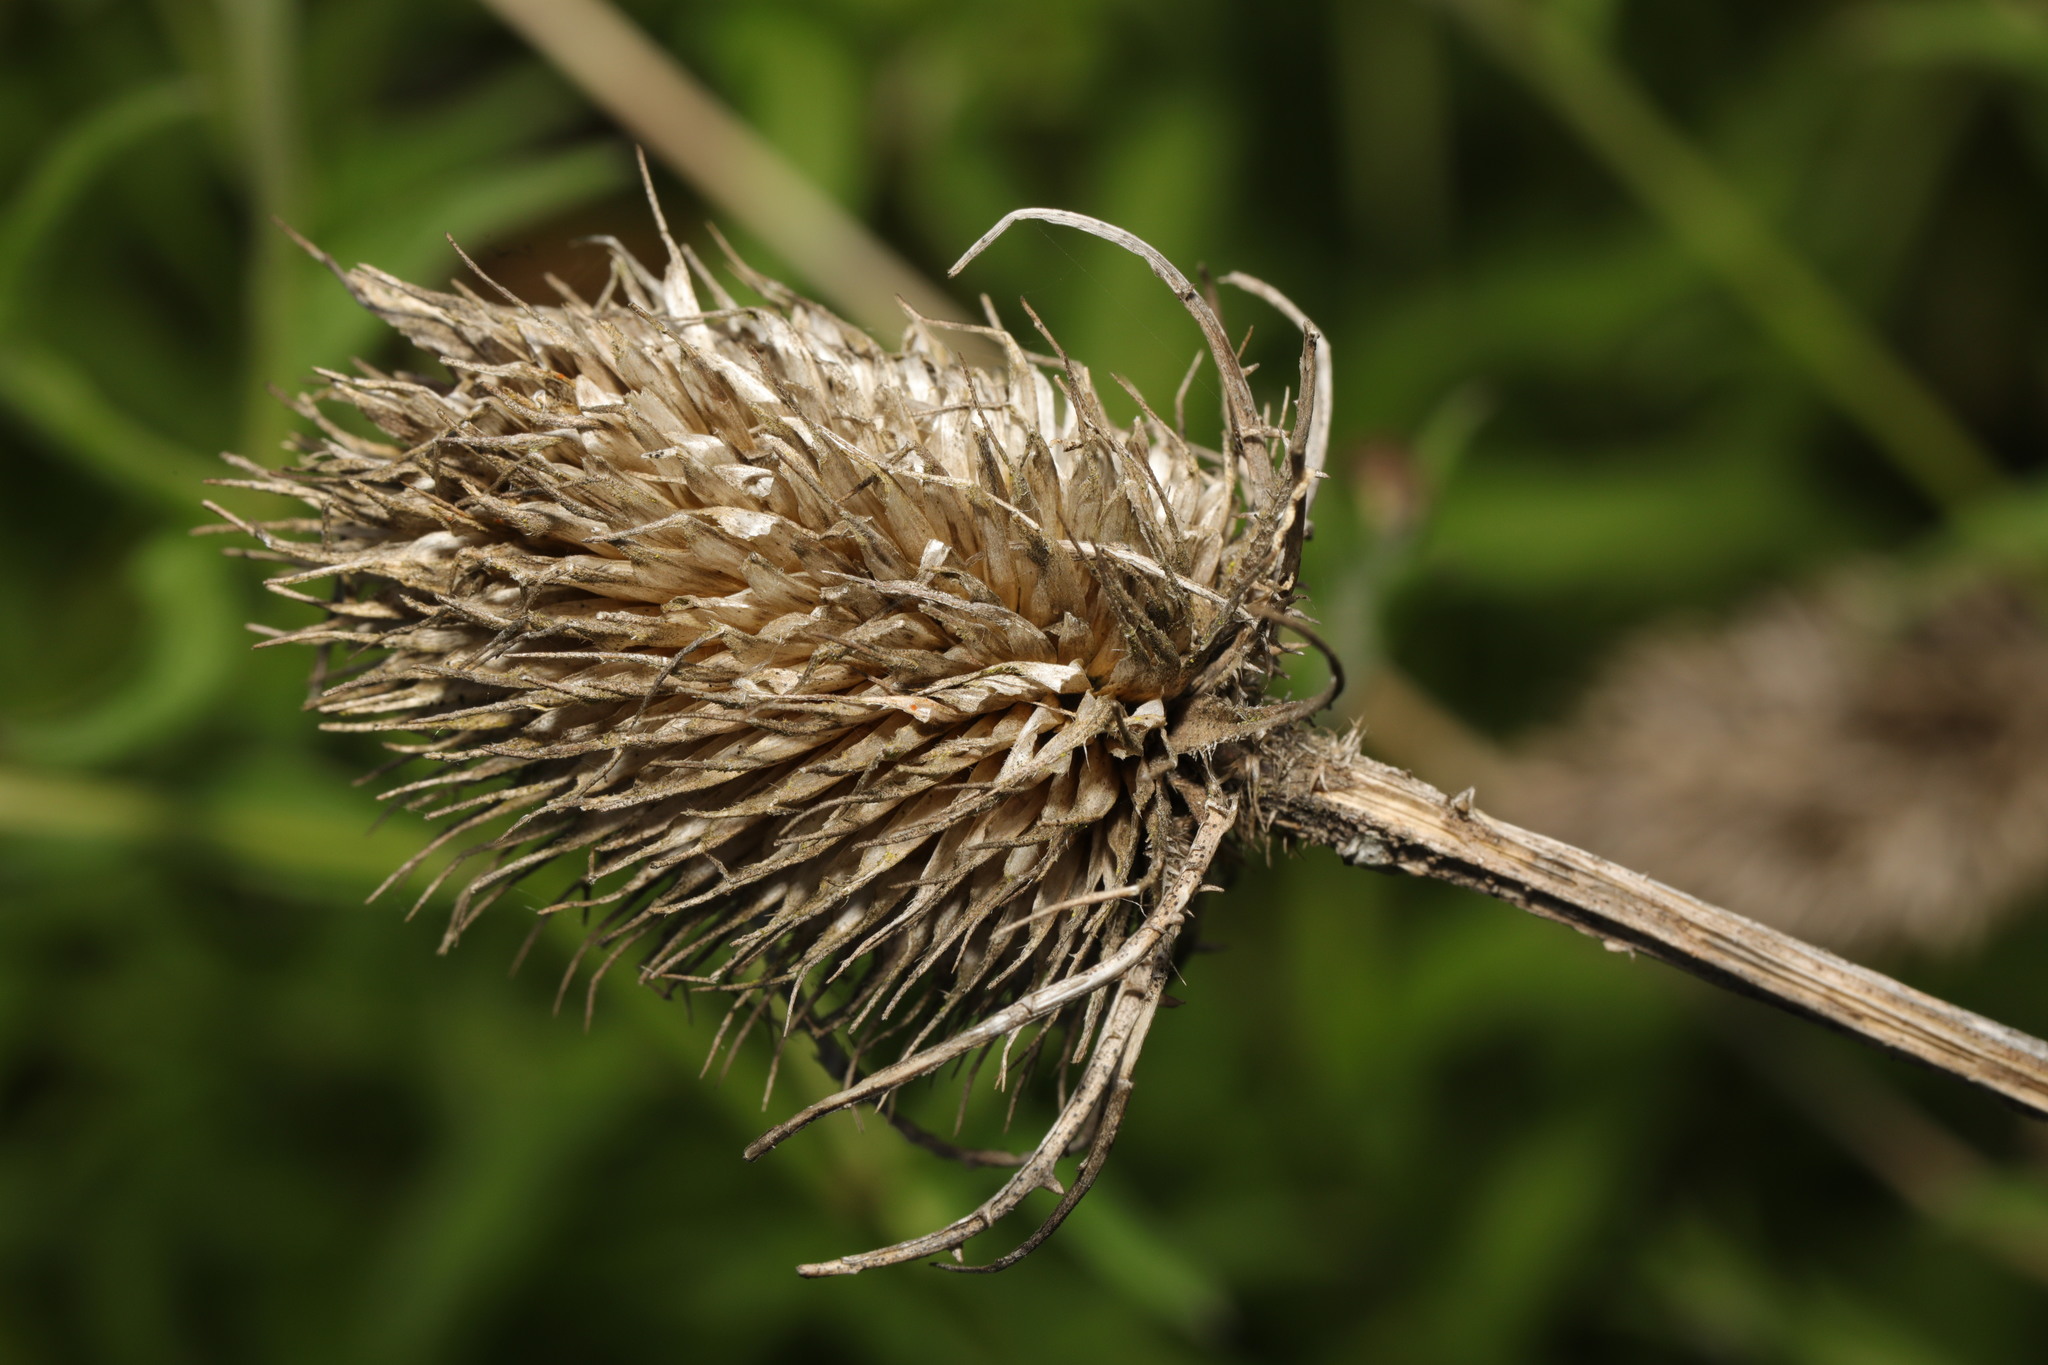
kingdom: Plantae
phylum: Tracheophyta
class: Magnoliopsida
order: Dipsacales
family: Caprifoliaceae
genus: Dipsacus
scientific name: Dipsacus fullonum
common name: Teasel
